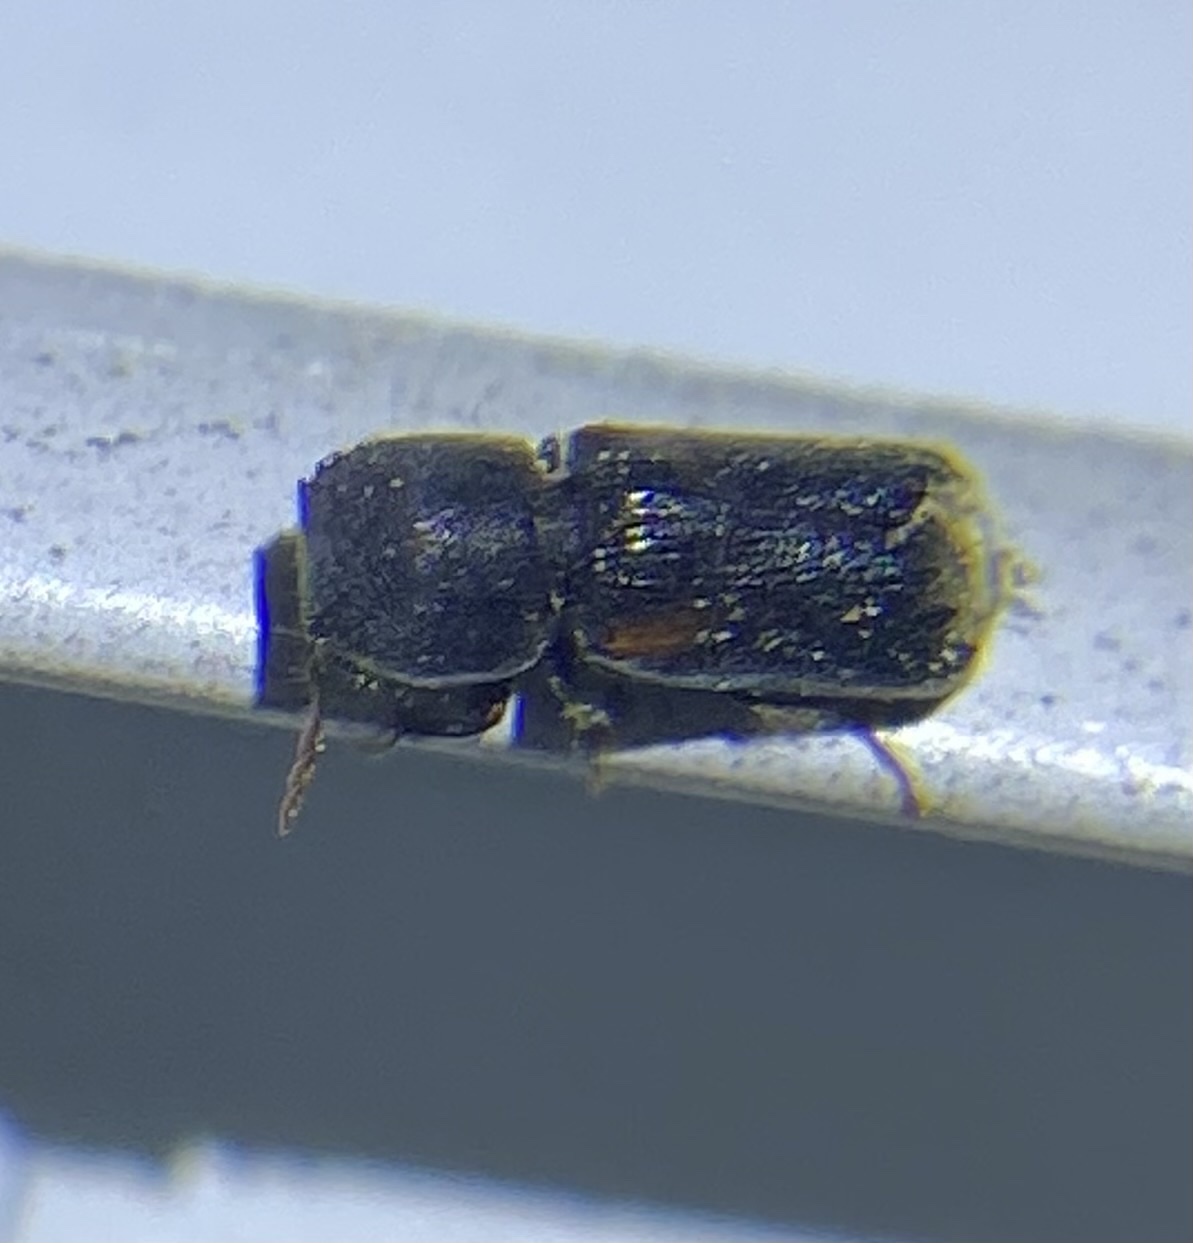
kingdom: Animalia
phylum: Arthropoda
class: Insecta
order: Coleoptera
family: Bostrichidae
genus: Xylobiops
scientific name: Xylobiops basilaris
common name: Red-shouldered bostrichid
